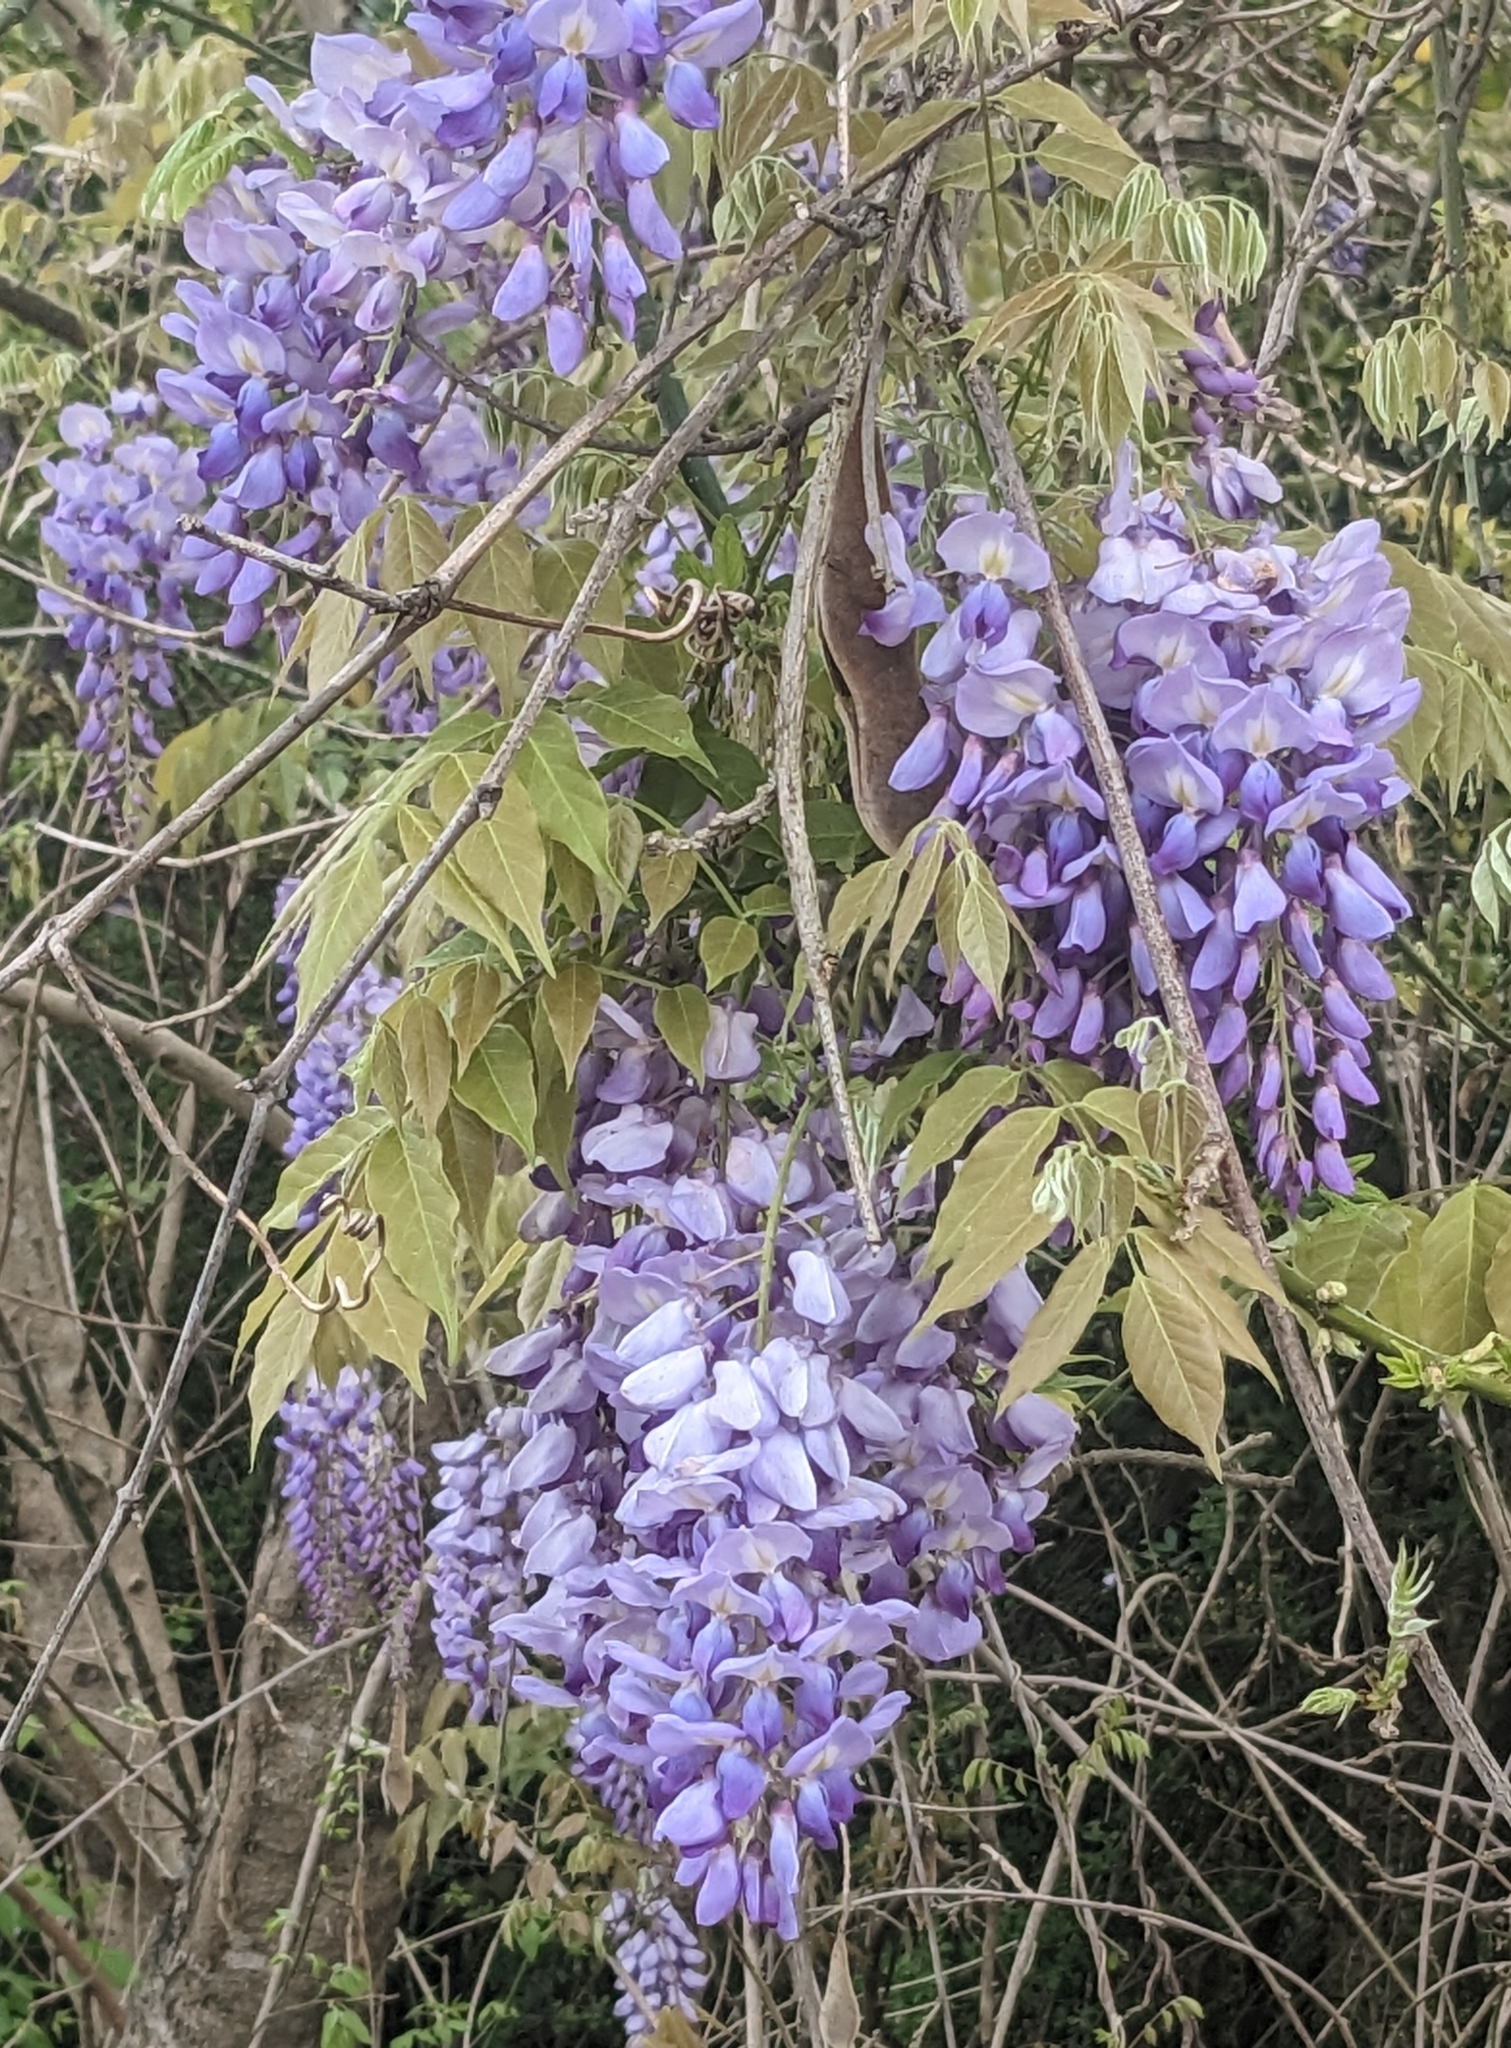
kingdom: Plantae
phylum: Tracheophyta
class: Magnoliopsida
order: Fabales
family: Fabaceae
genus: Wisteria
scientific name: Wisteria sinensis
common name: Chinese wisteria
